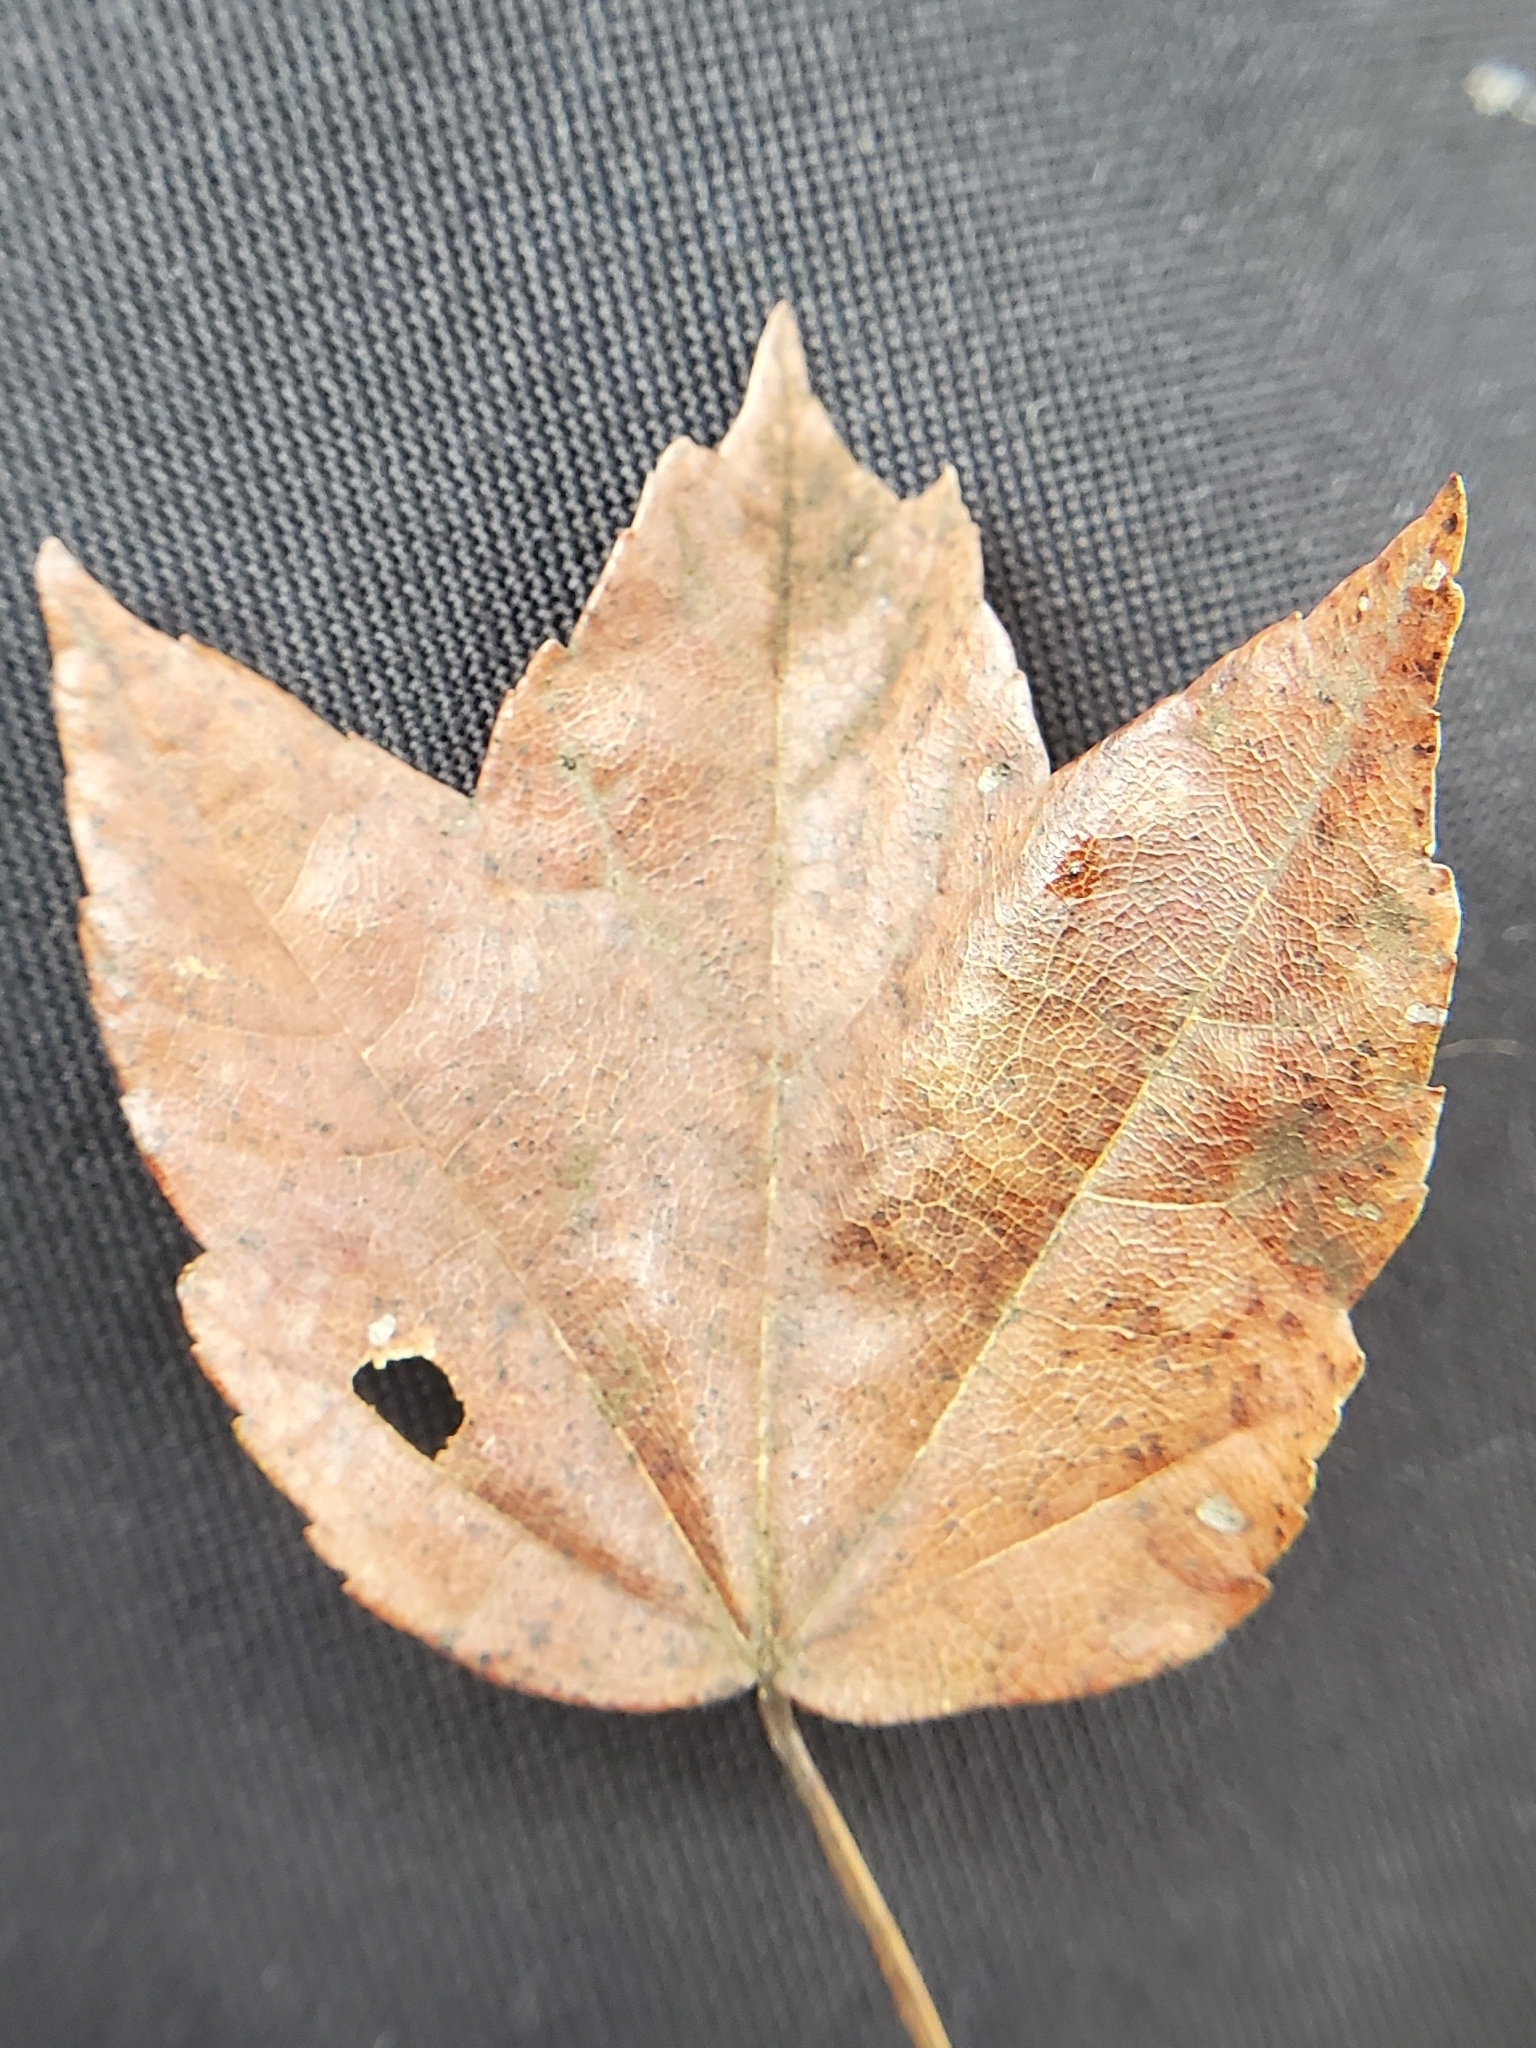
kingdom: Plantae
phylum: Tracheophyta
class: Magnoliopsida
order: Sapindales
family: Sapindaceae
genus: Acer
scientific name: Acer rubrum
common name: Red maple
